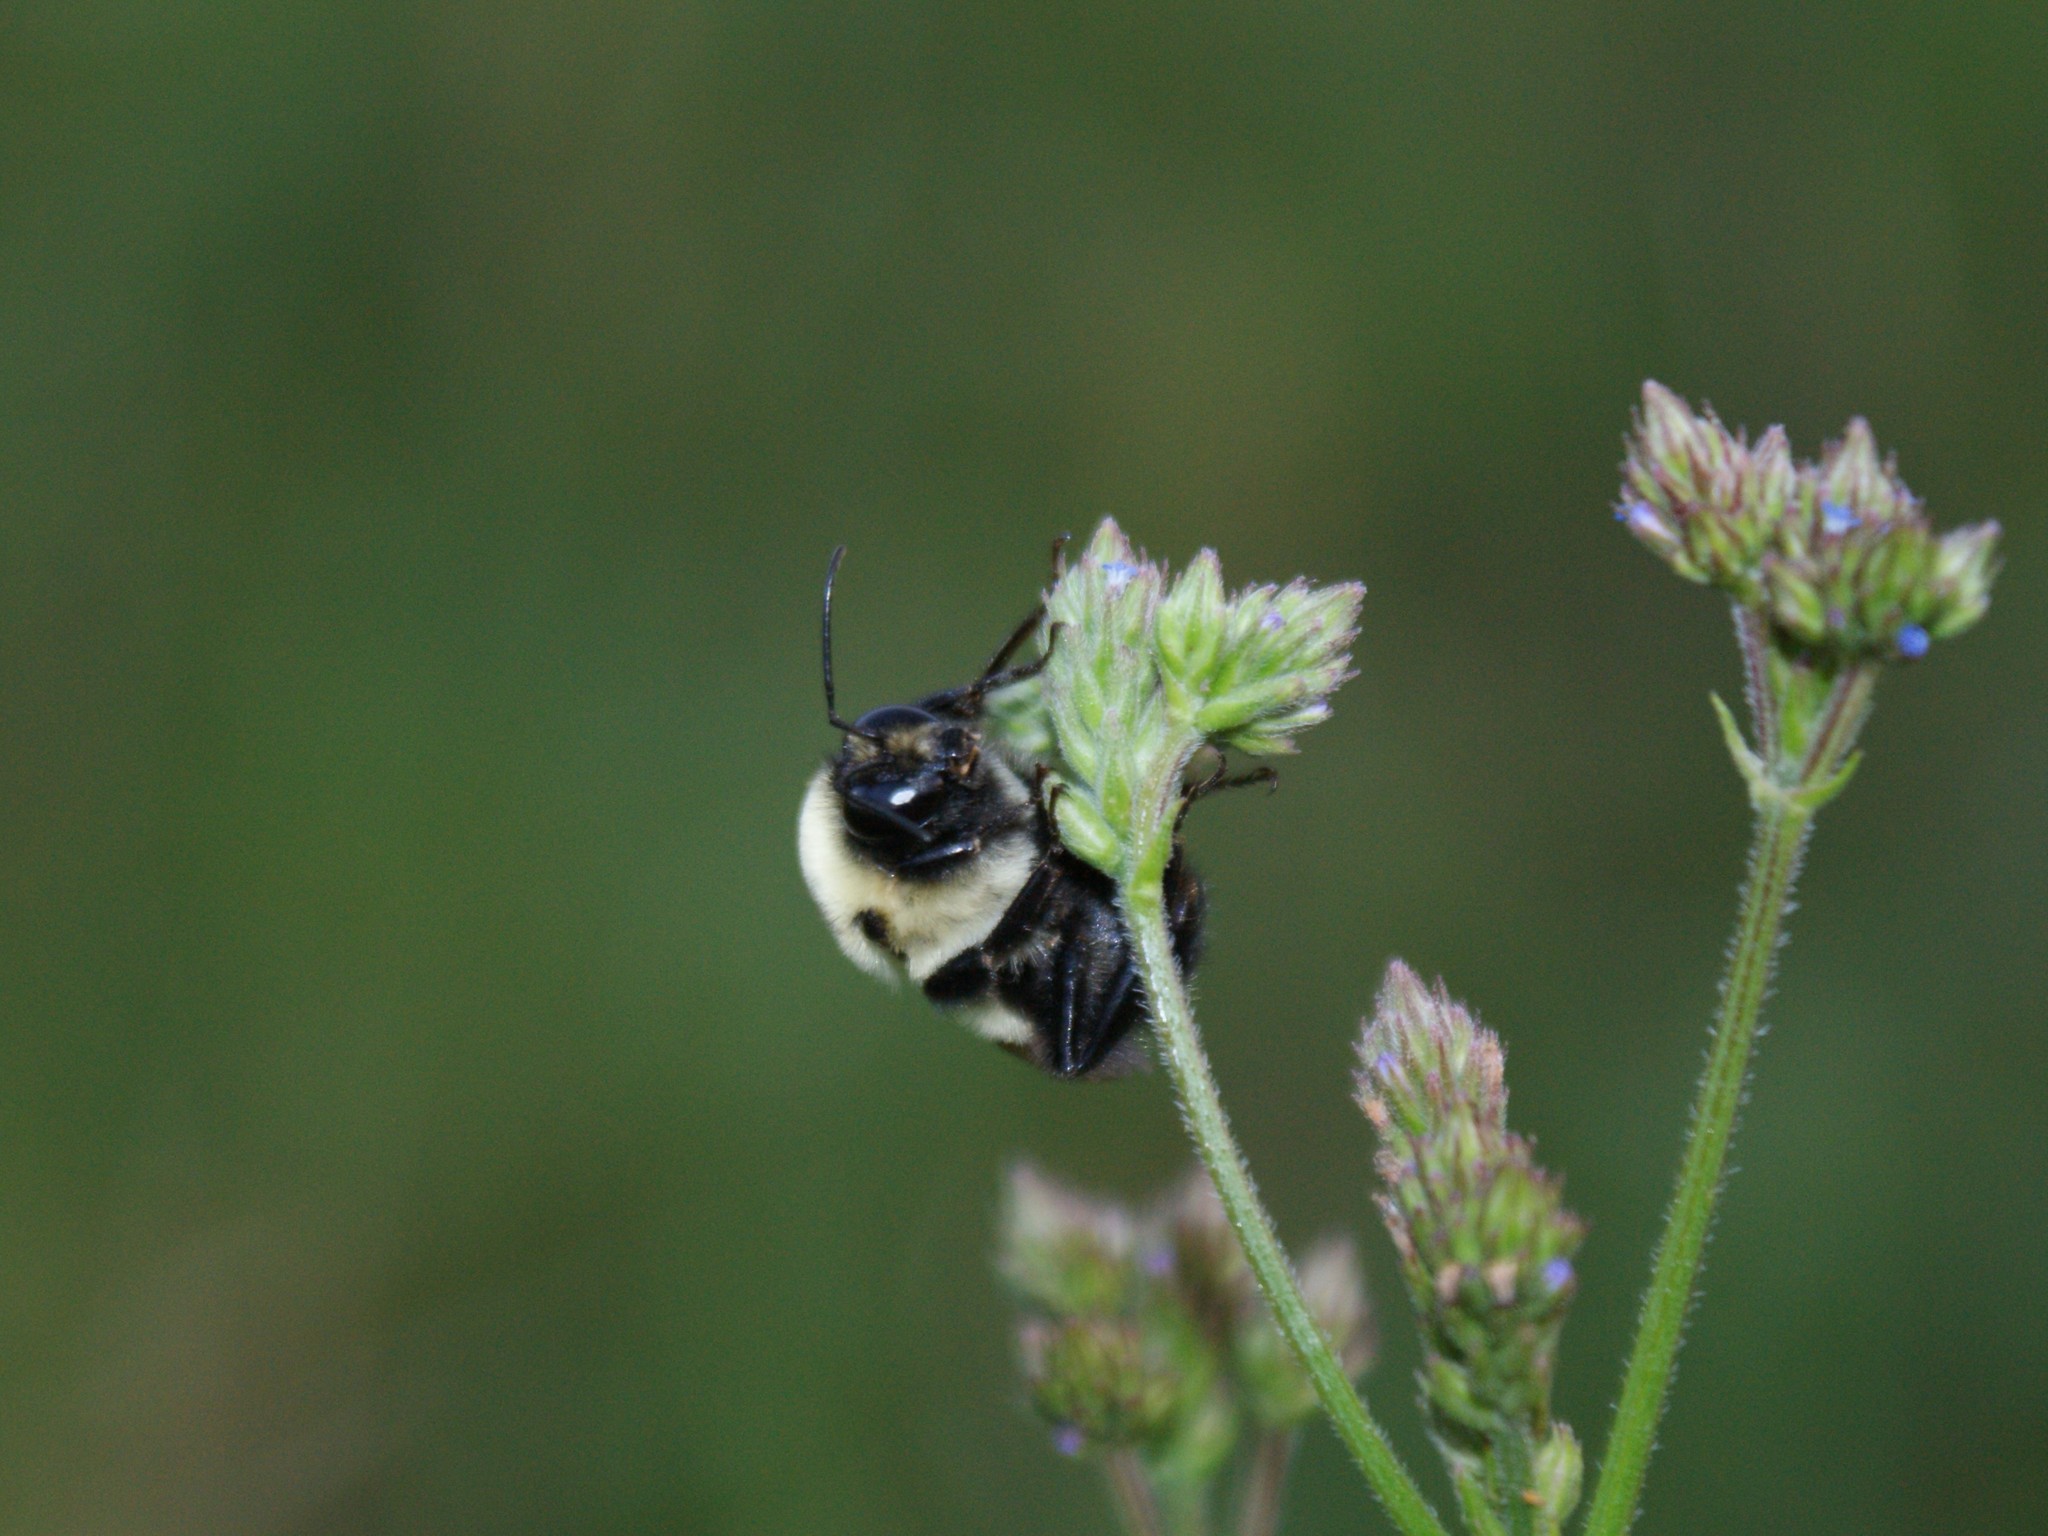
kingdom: Animalia
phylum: Arthropoda
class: Insecta
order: Hymenoptera
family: Apidae
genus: Bombus
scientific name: Bombus griseocollis
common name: Brown-belted bumble bee
